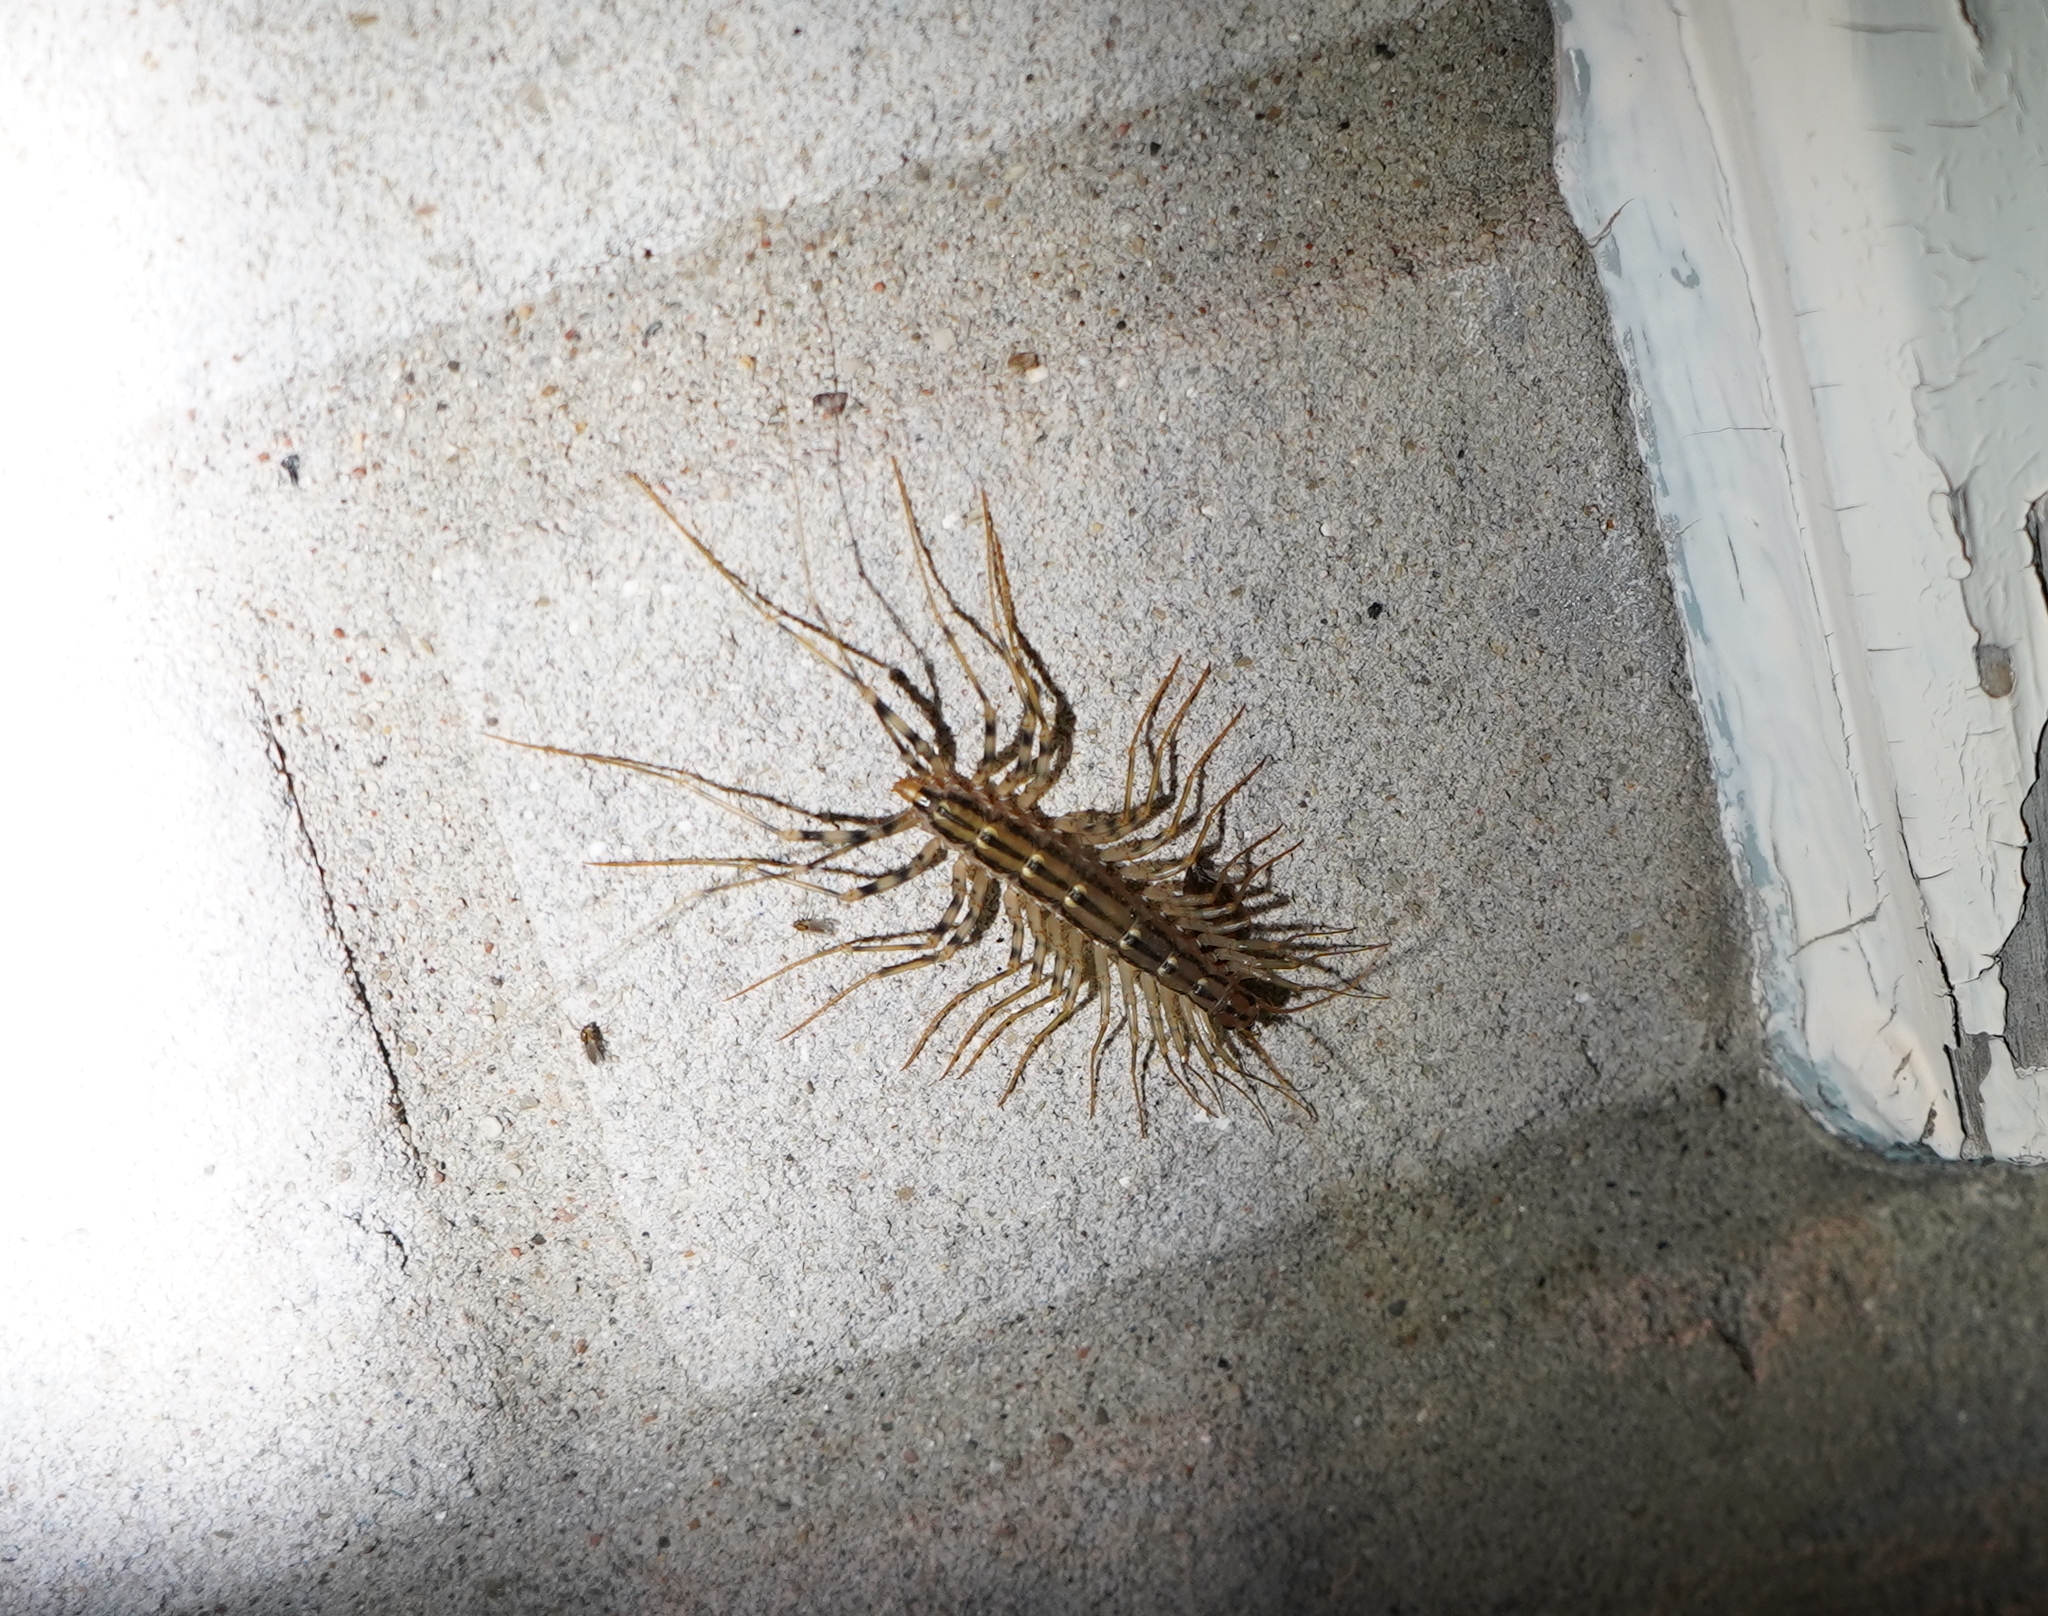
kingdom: Animalia
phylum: Arthropoda
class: Chilopoda
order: Scutigeromorpha
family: Scutigeridae
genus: Scutigera
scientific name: Scutigera coleoptrata
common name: House centipede
